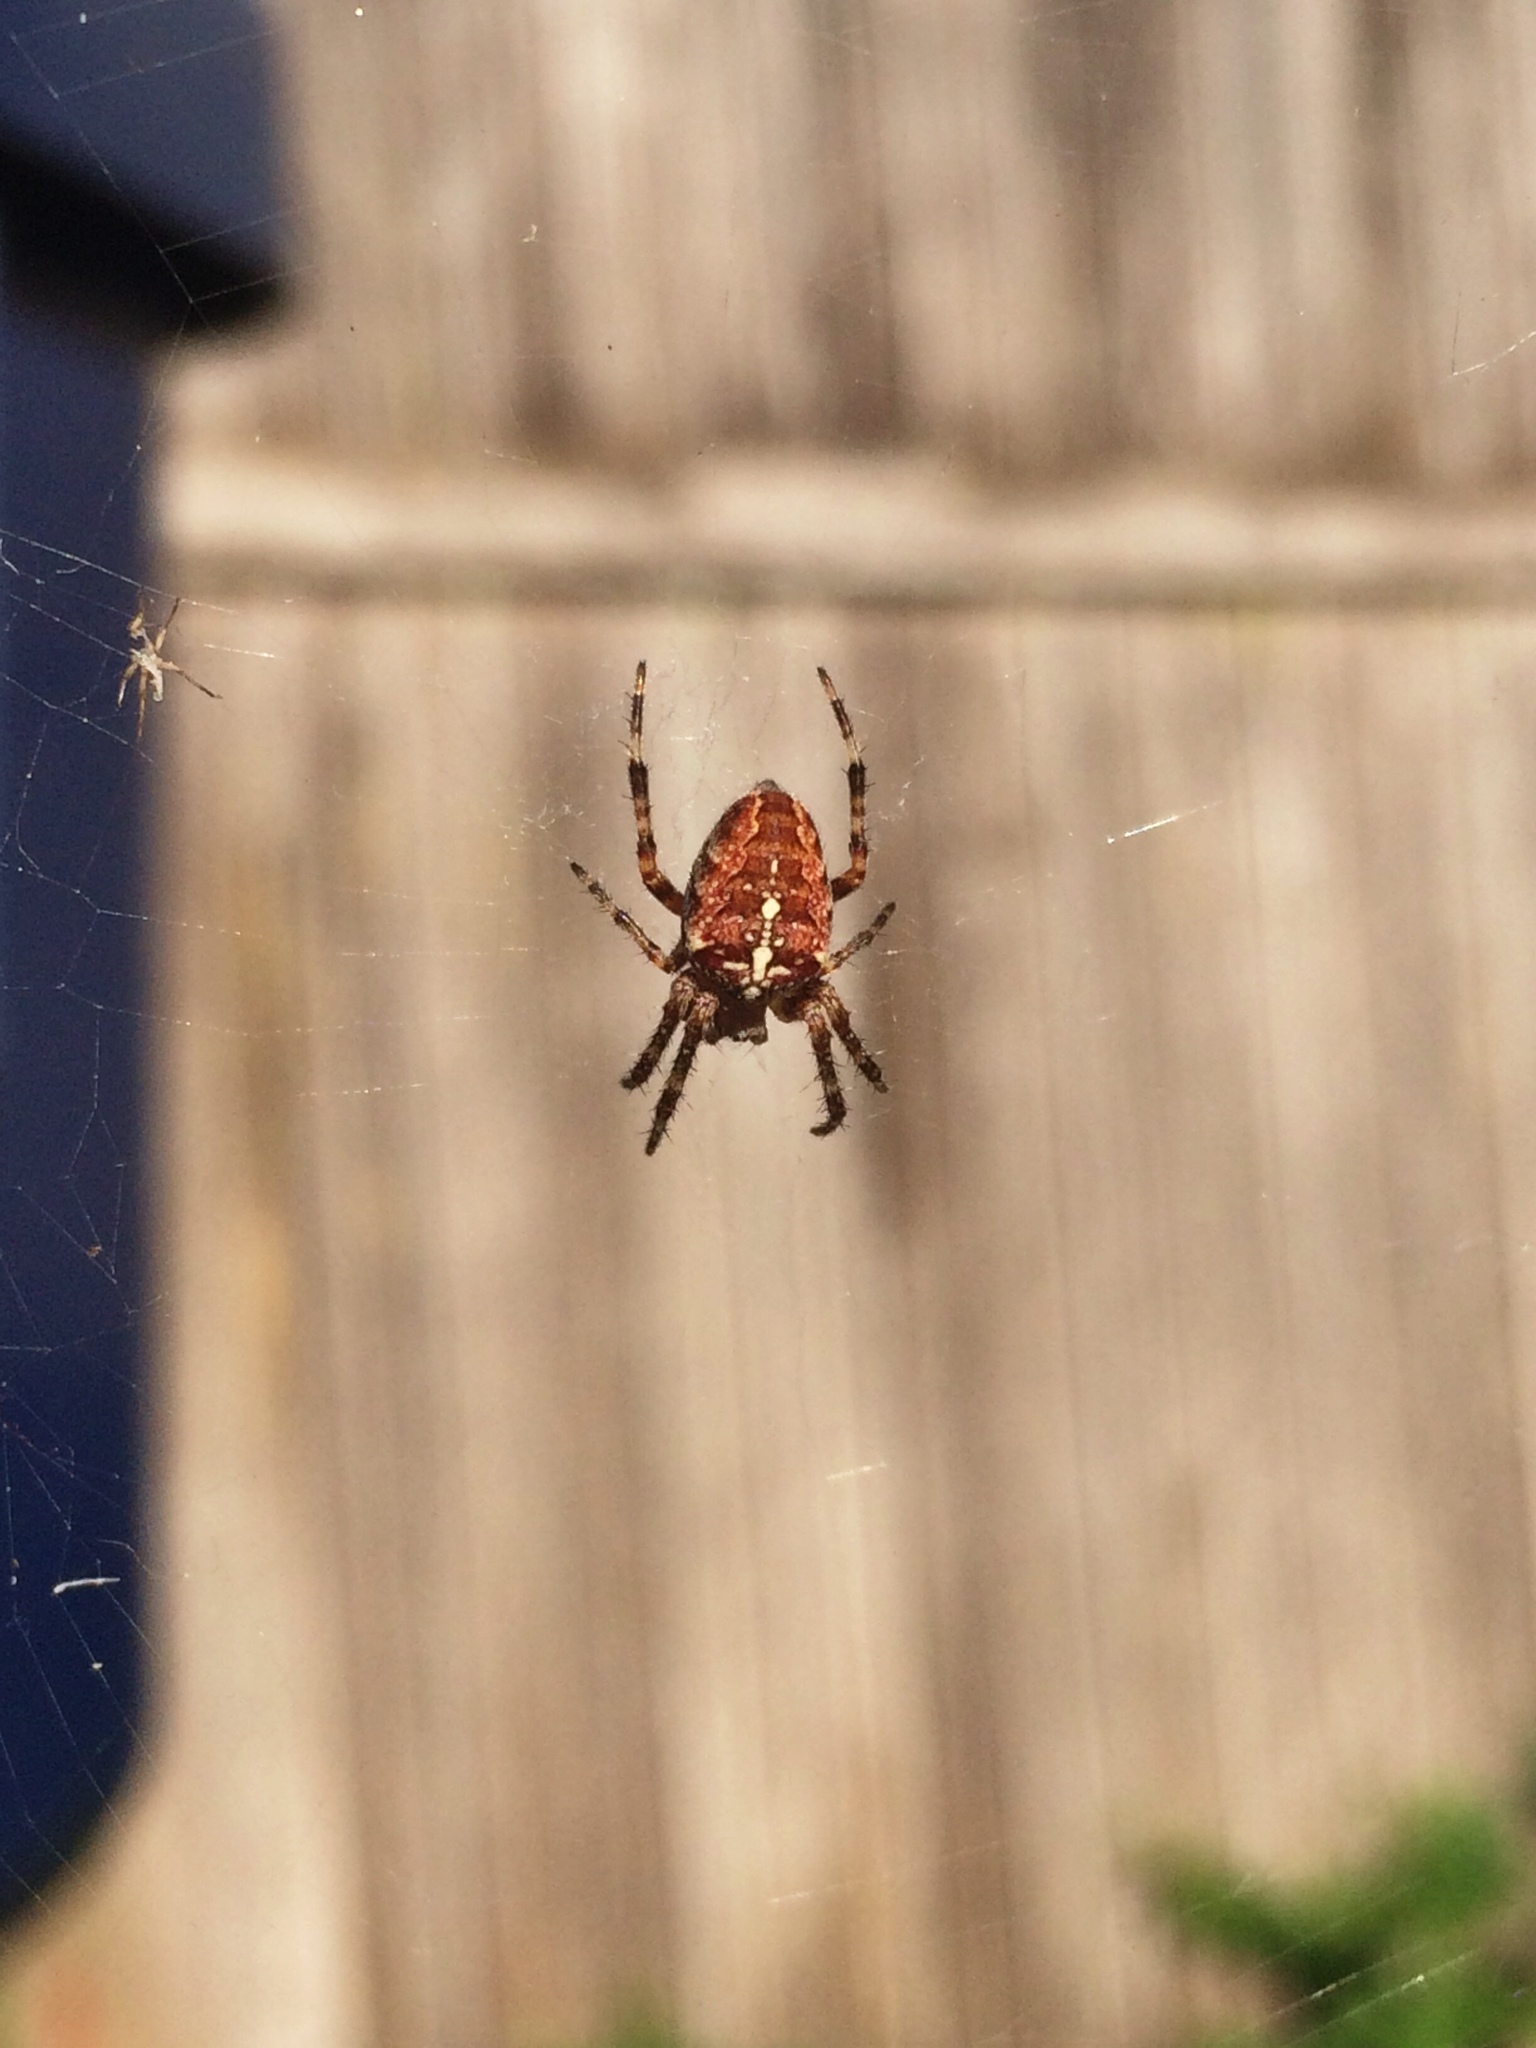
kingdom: Animalia
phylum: Arthropoda
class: Arachnida
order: Araneae
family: Araneidae
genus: Araneus
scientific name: Araneus diadematus
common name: Cross orbweaver
